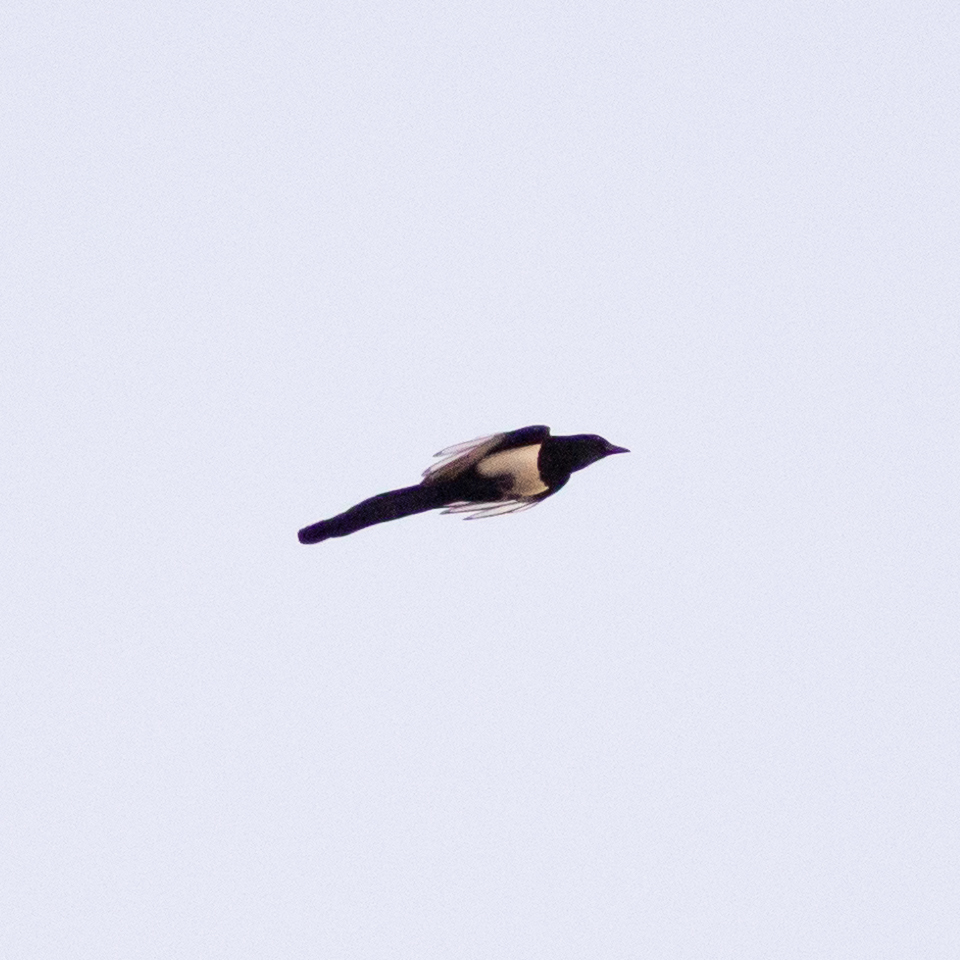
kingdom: Animalia
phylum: Chordata
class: Aves
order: Passeriformes
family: Corvidae
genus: Pica
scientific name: Pica pica
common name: Eurasian magpie
